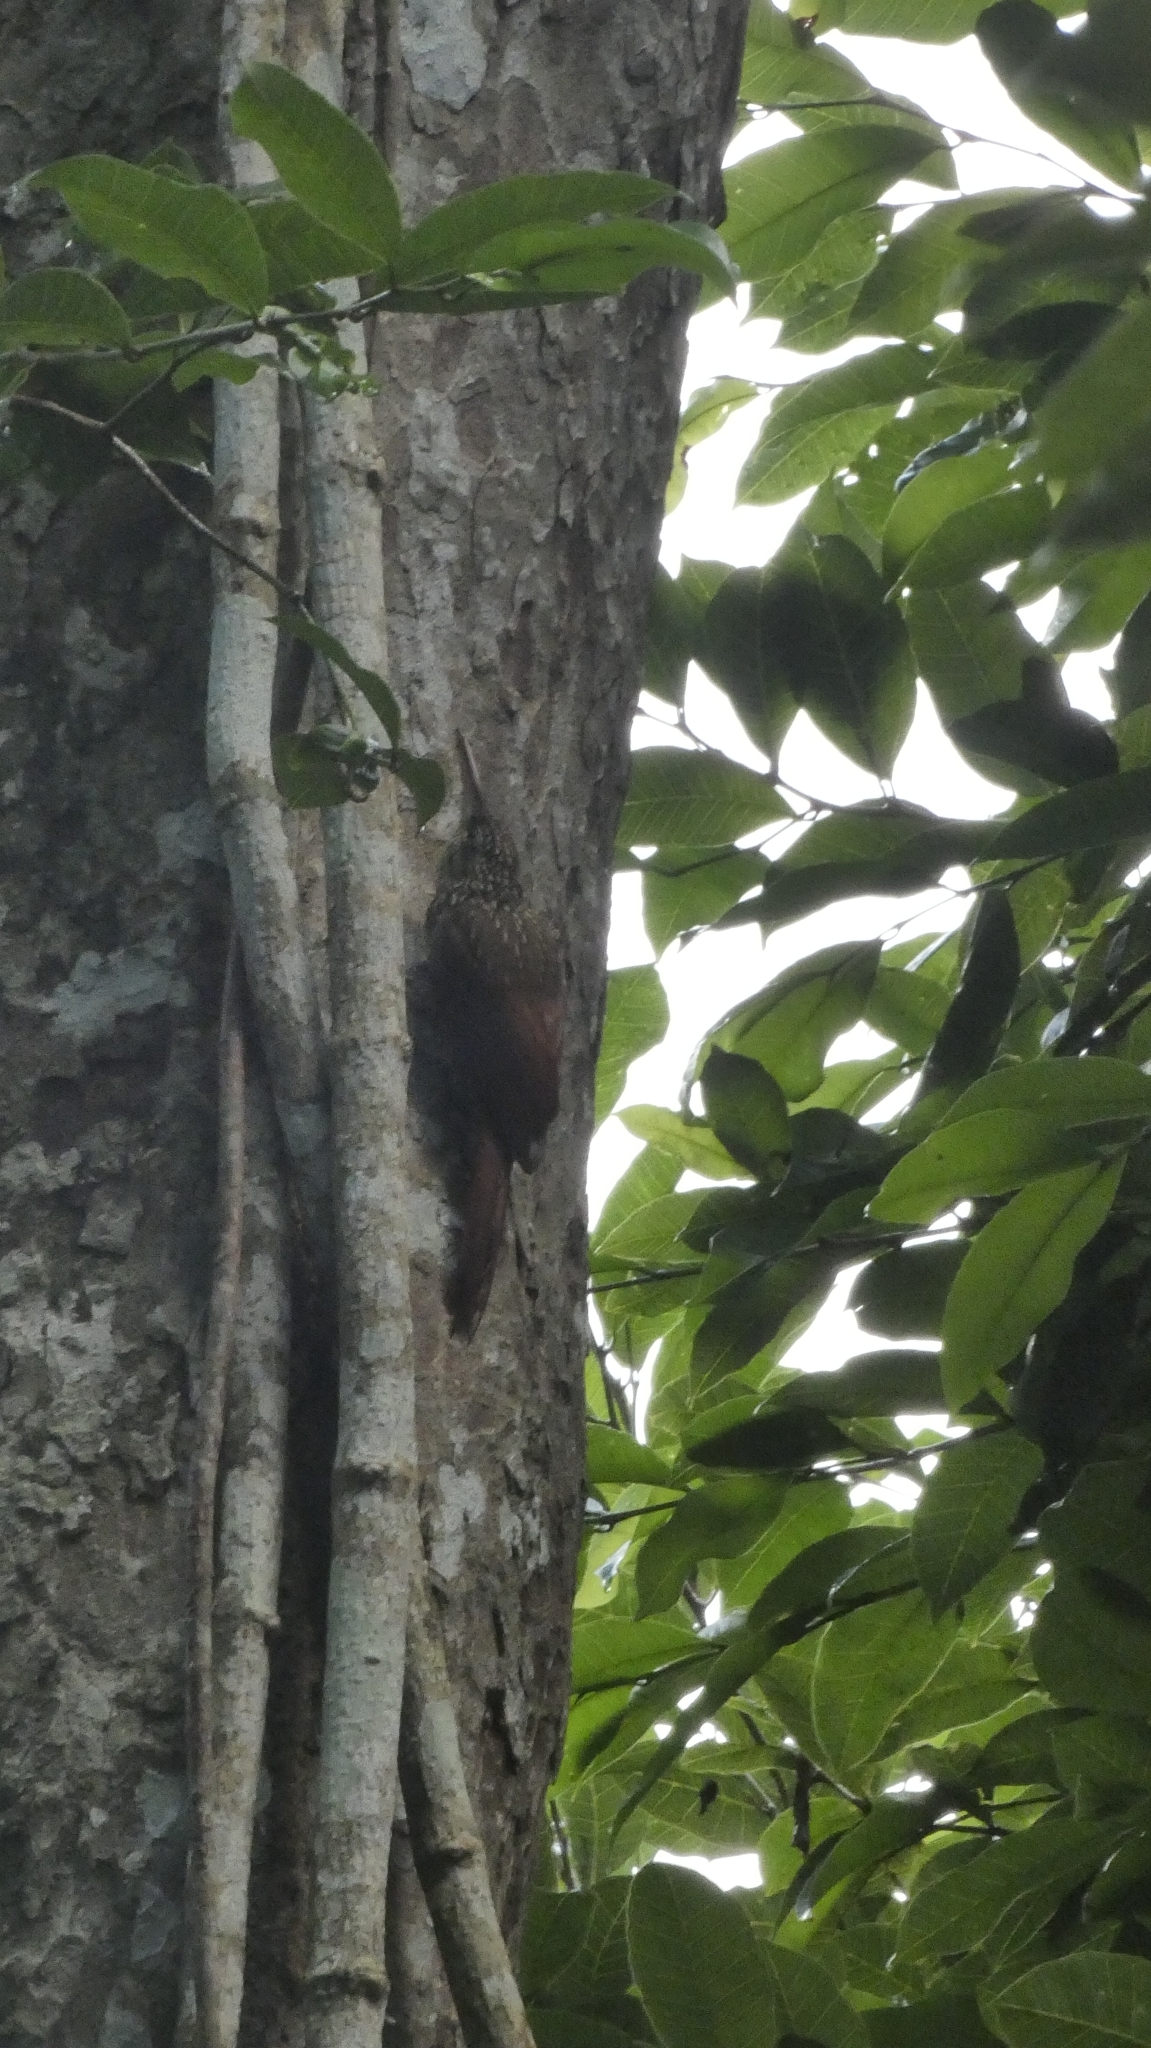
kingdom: Animalia
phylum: Chordata
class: Aves
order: Passeriformes
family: Furnariidae
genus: Xiphorhynchus
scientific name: Xiphorhynchus flavigaster
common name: Ivory-billed woodcreeper
